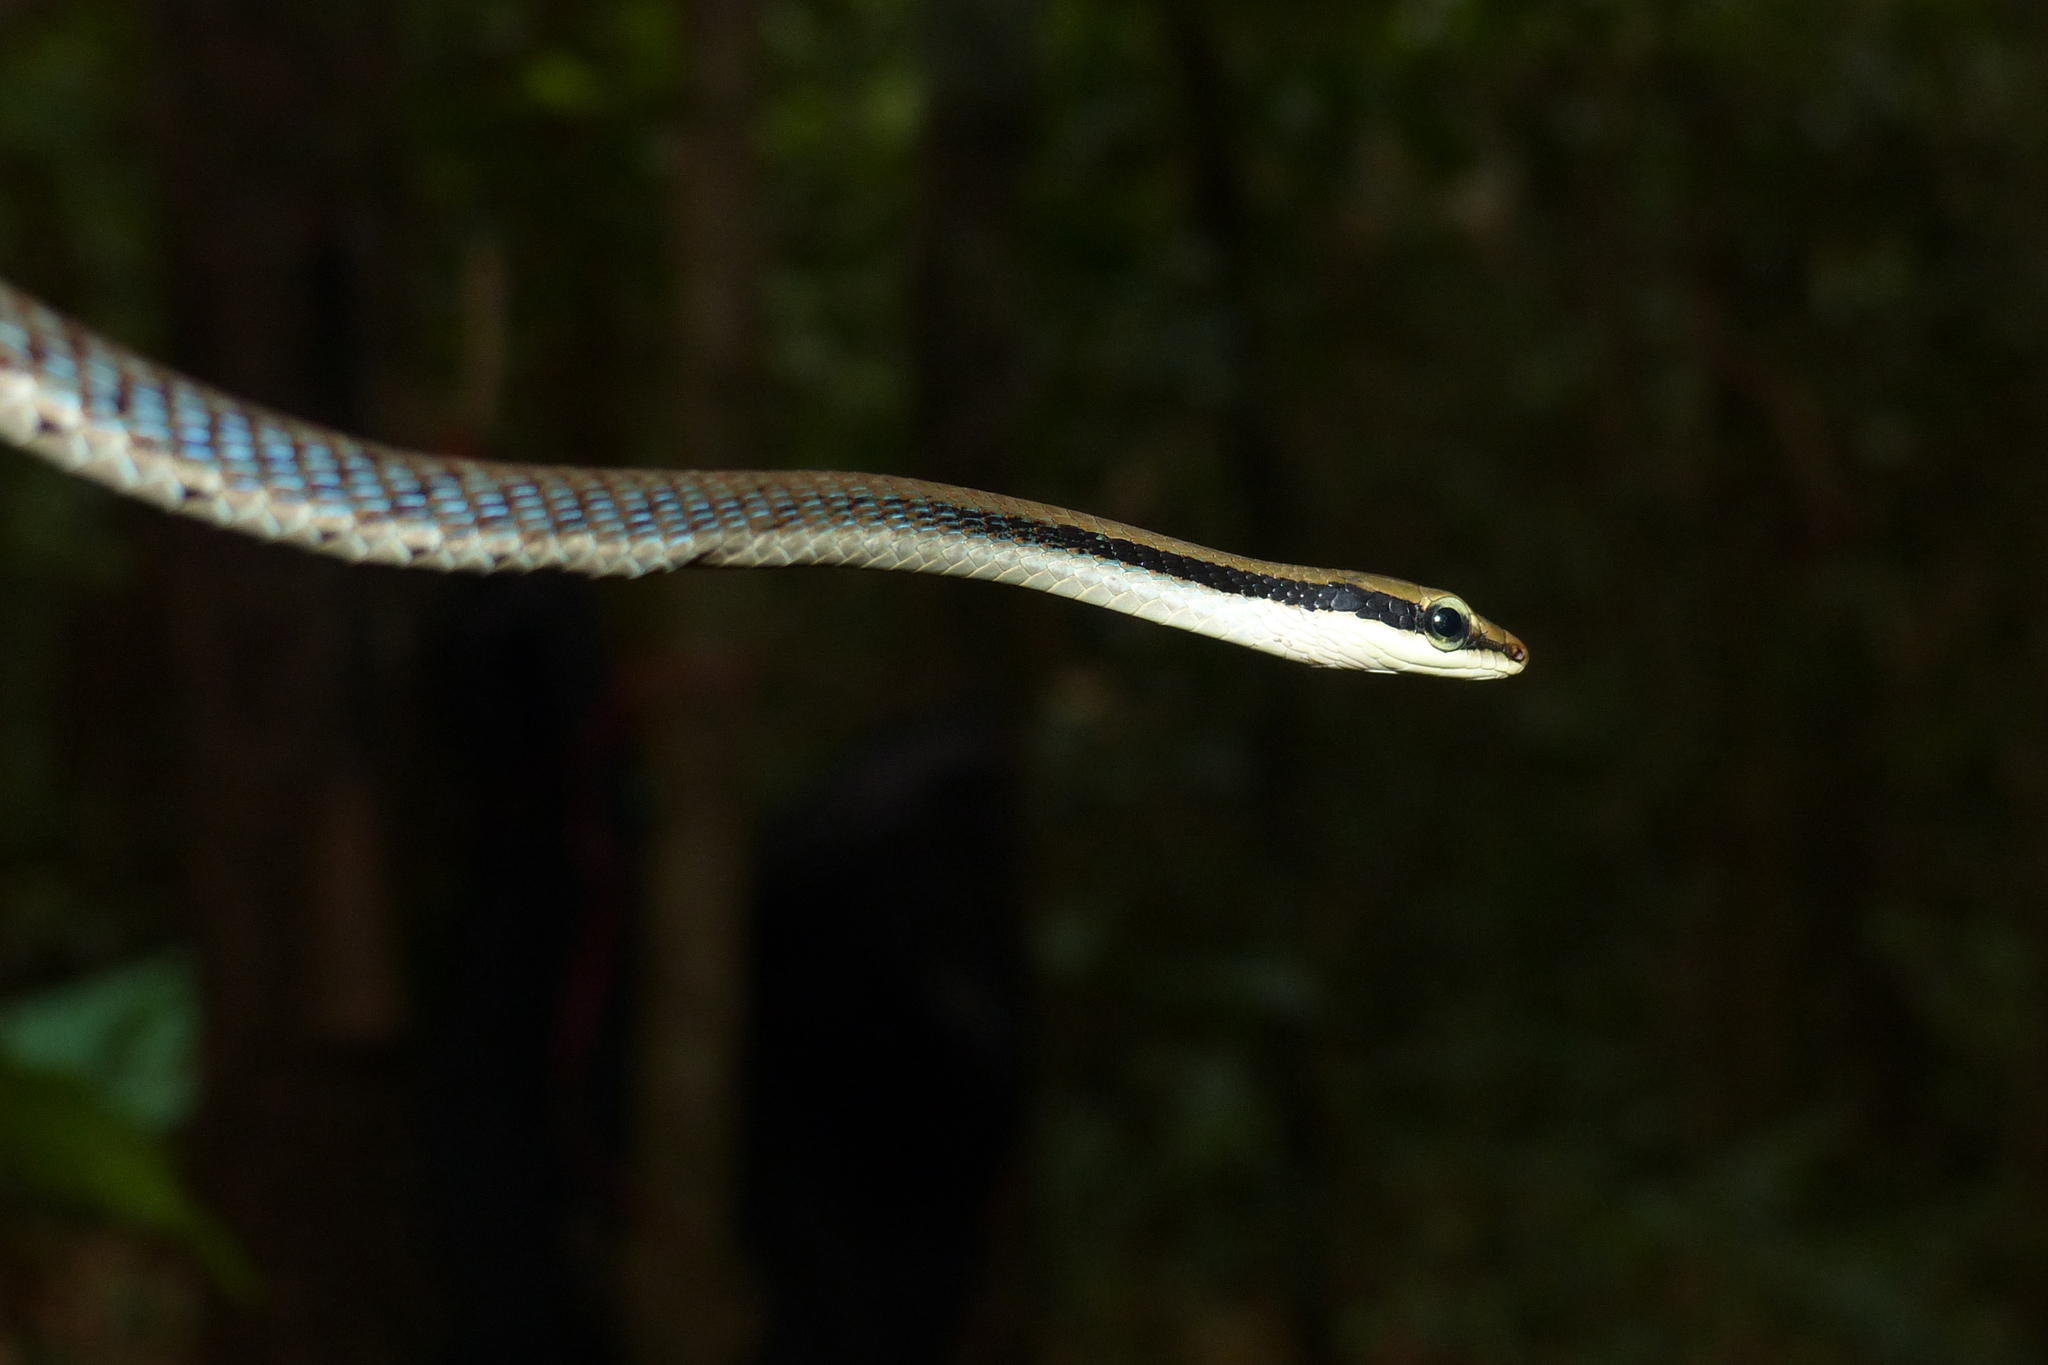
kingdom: Animalia
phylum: Chordata
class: Squamata
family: Colubridae
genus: Dendrelaphis
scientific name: Dendrelaphis ashoki
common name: Ashok’s bronzeback tree snake
